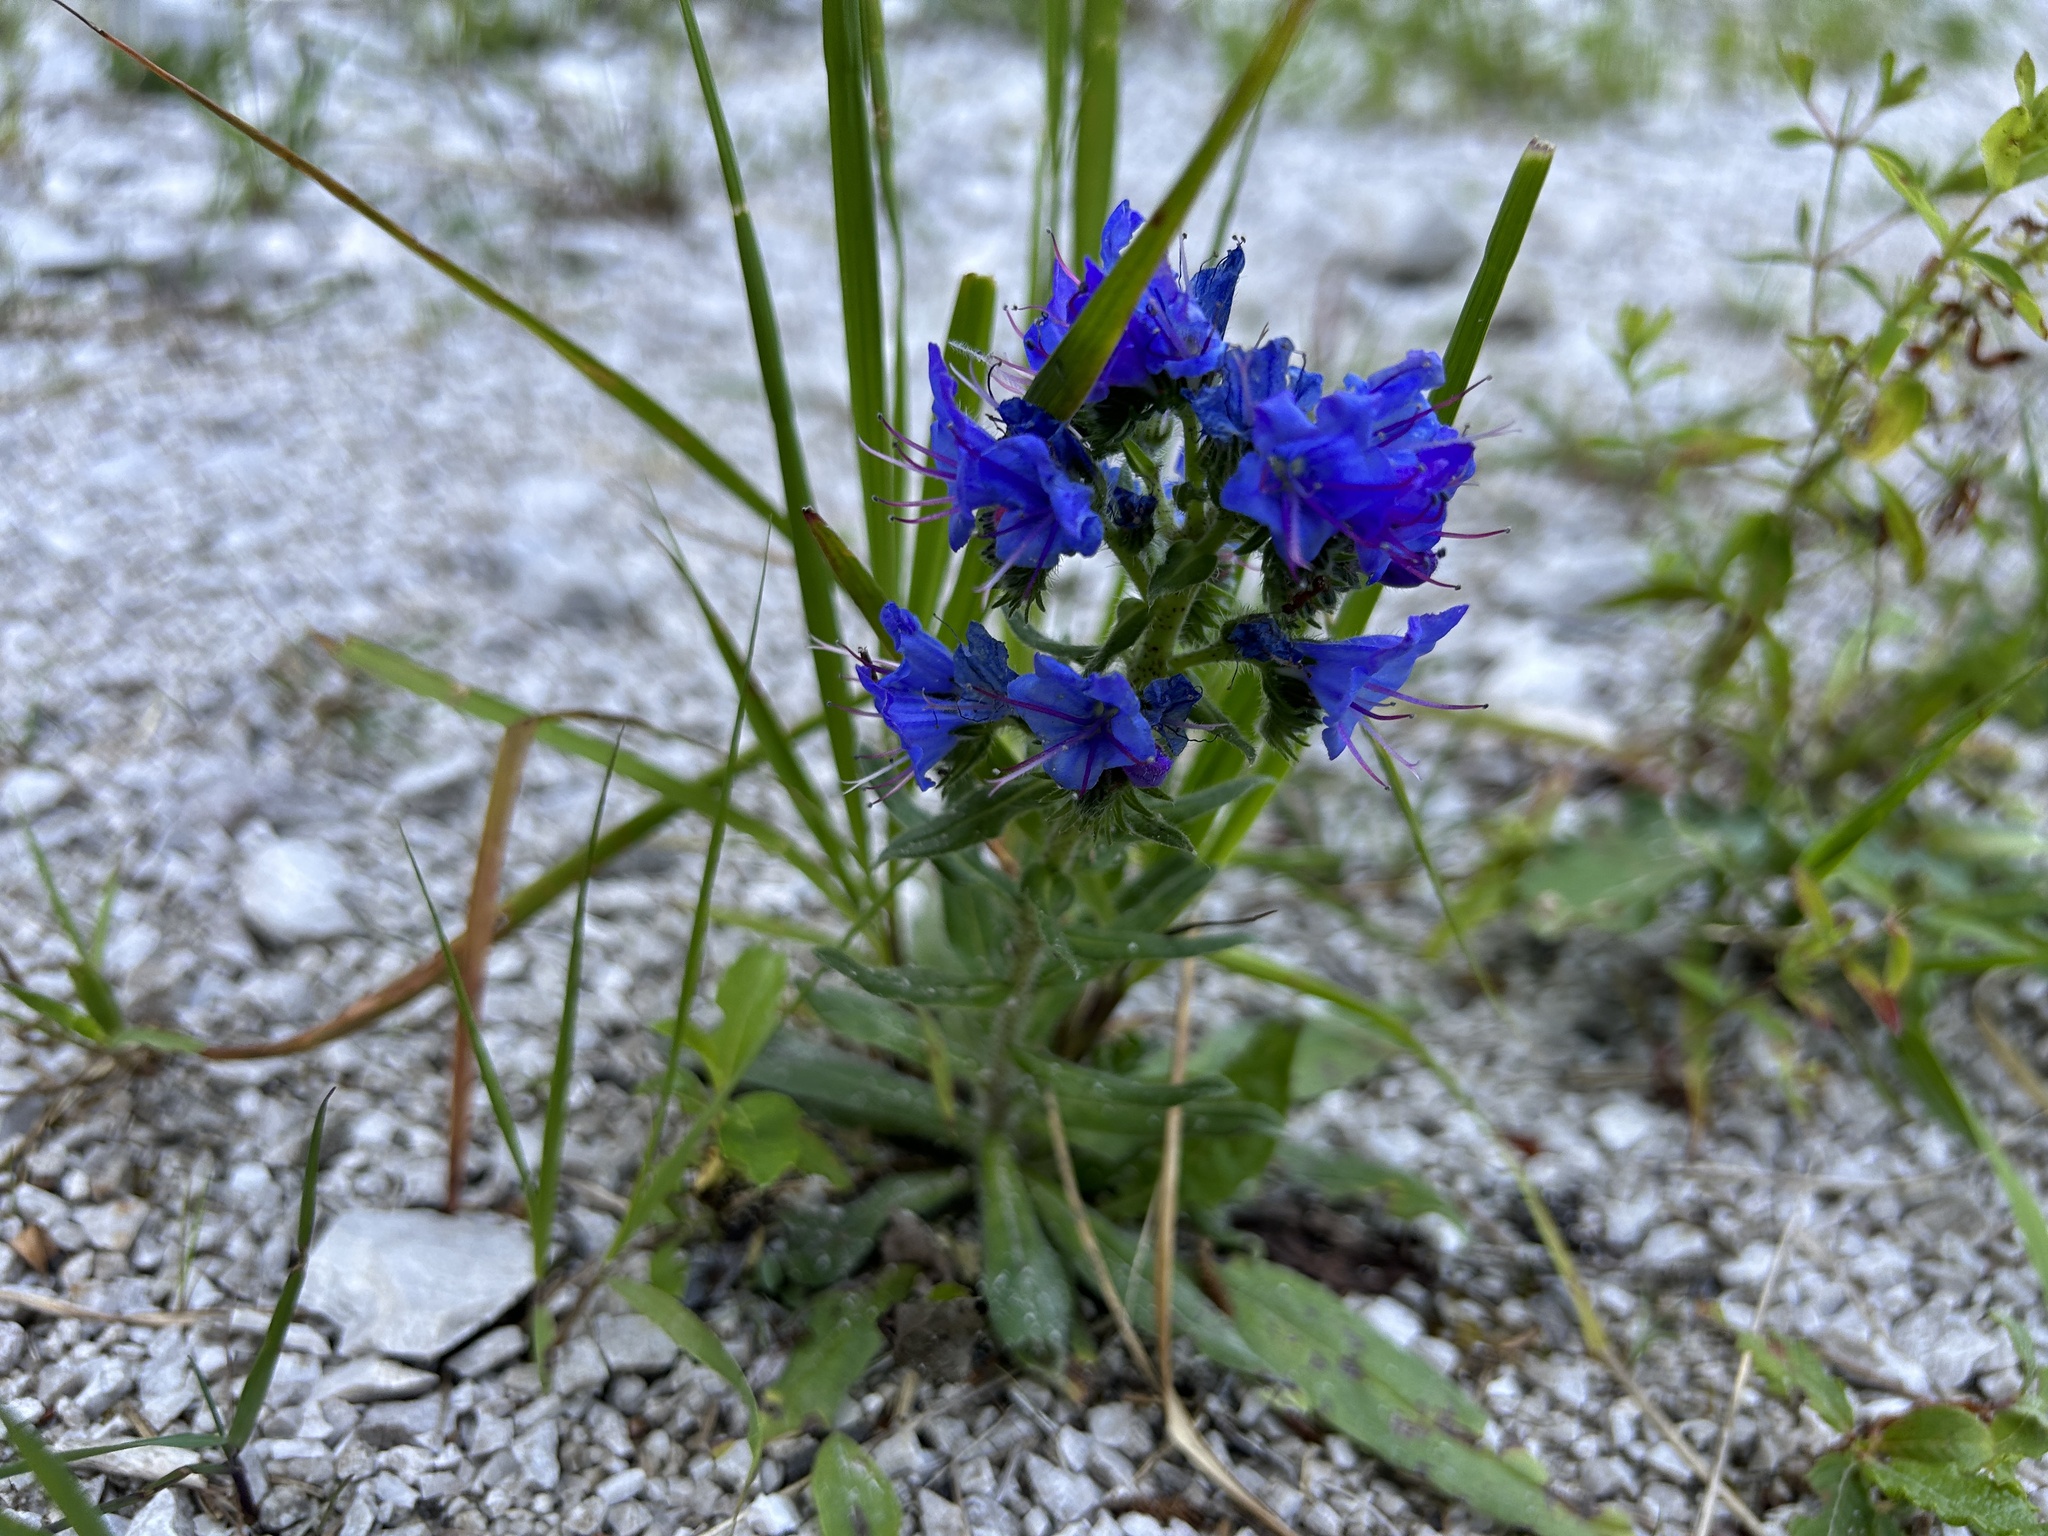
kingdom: Plantae
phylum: Tracheophyta
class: Magnoliopsida
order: Boraginales
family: Boraginaceae
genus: Echium
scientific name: Echium vulgare
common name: Common viper's bugloss
